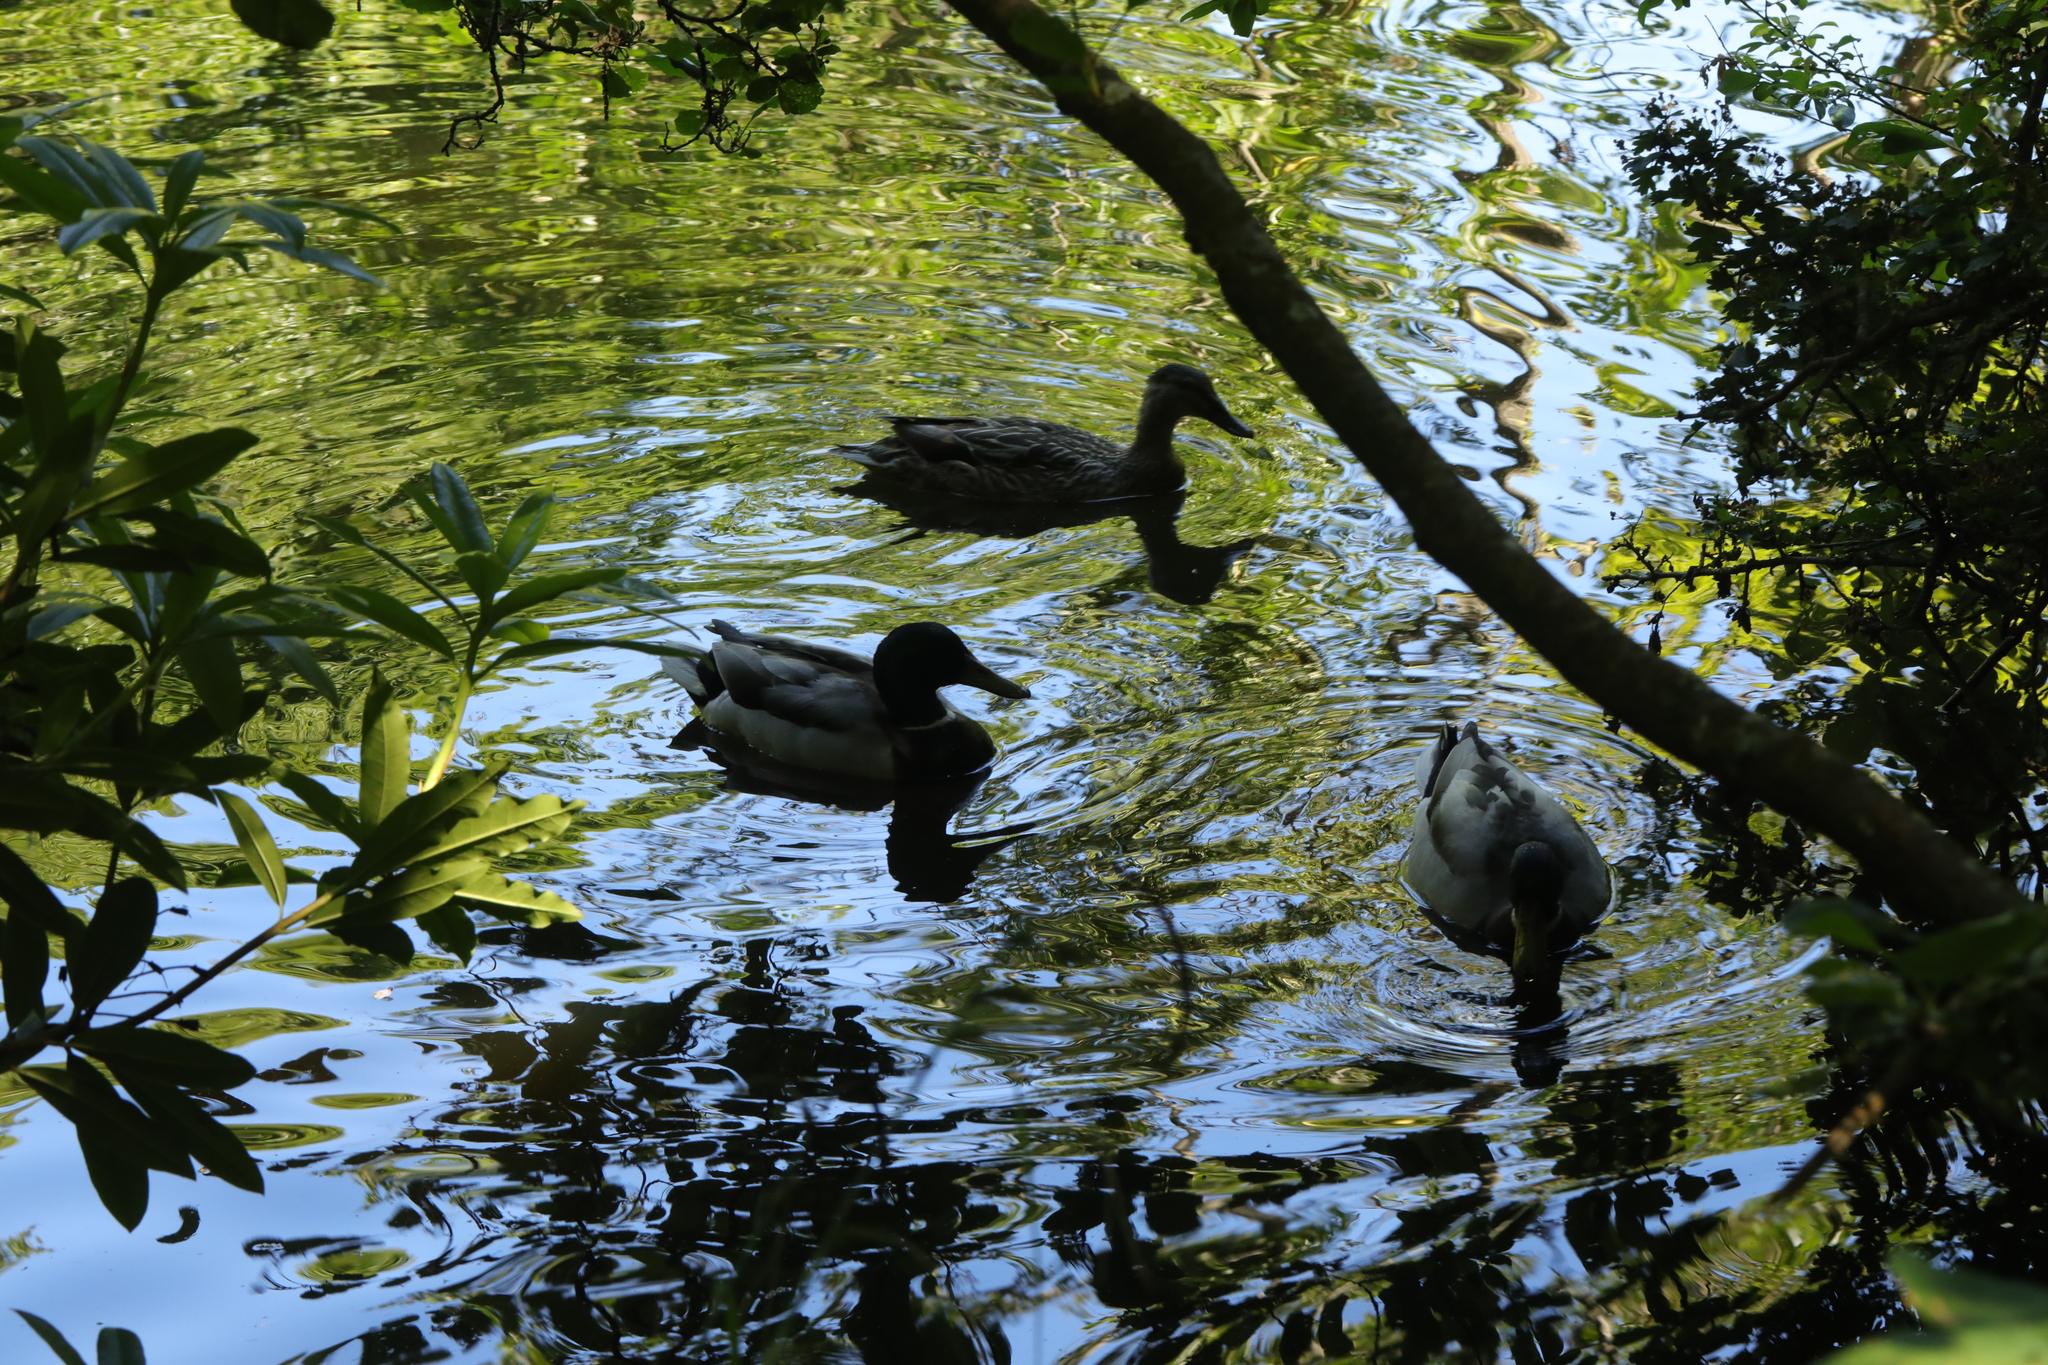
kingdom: Animalia
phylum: Chordata
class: Aves
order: Anseriformes
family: Anatidae
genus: Anas
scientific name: Anas platyrhynchos
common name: Mallard
